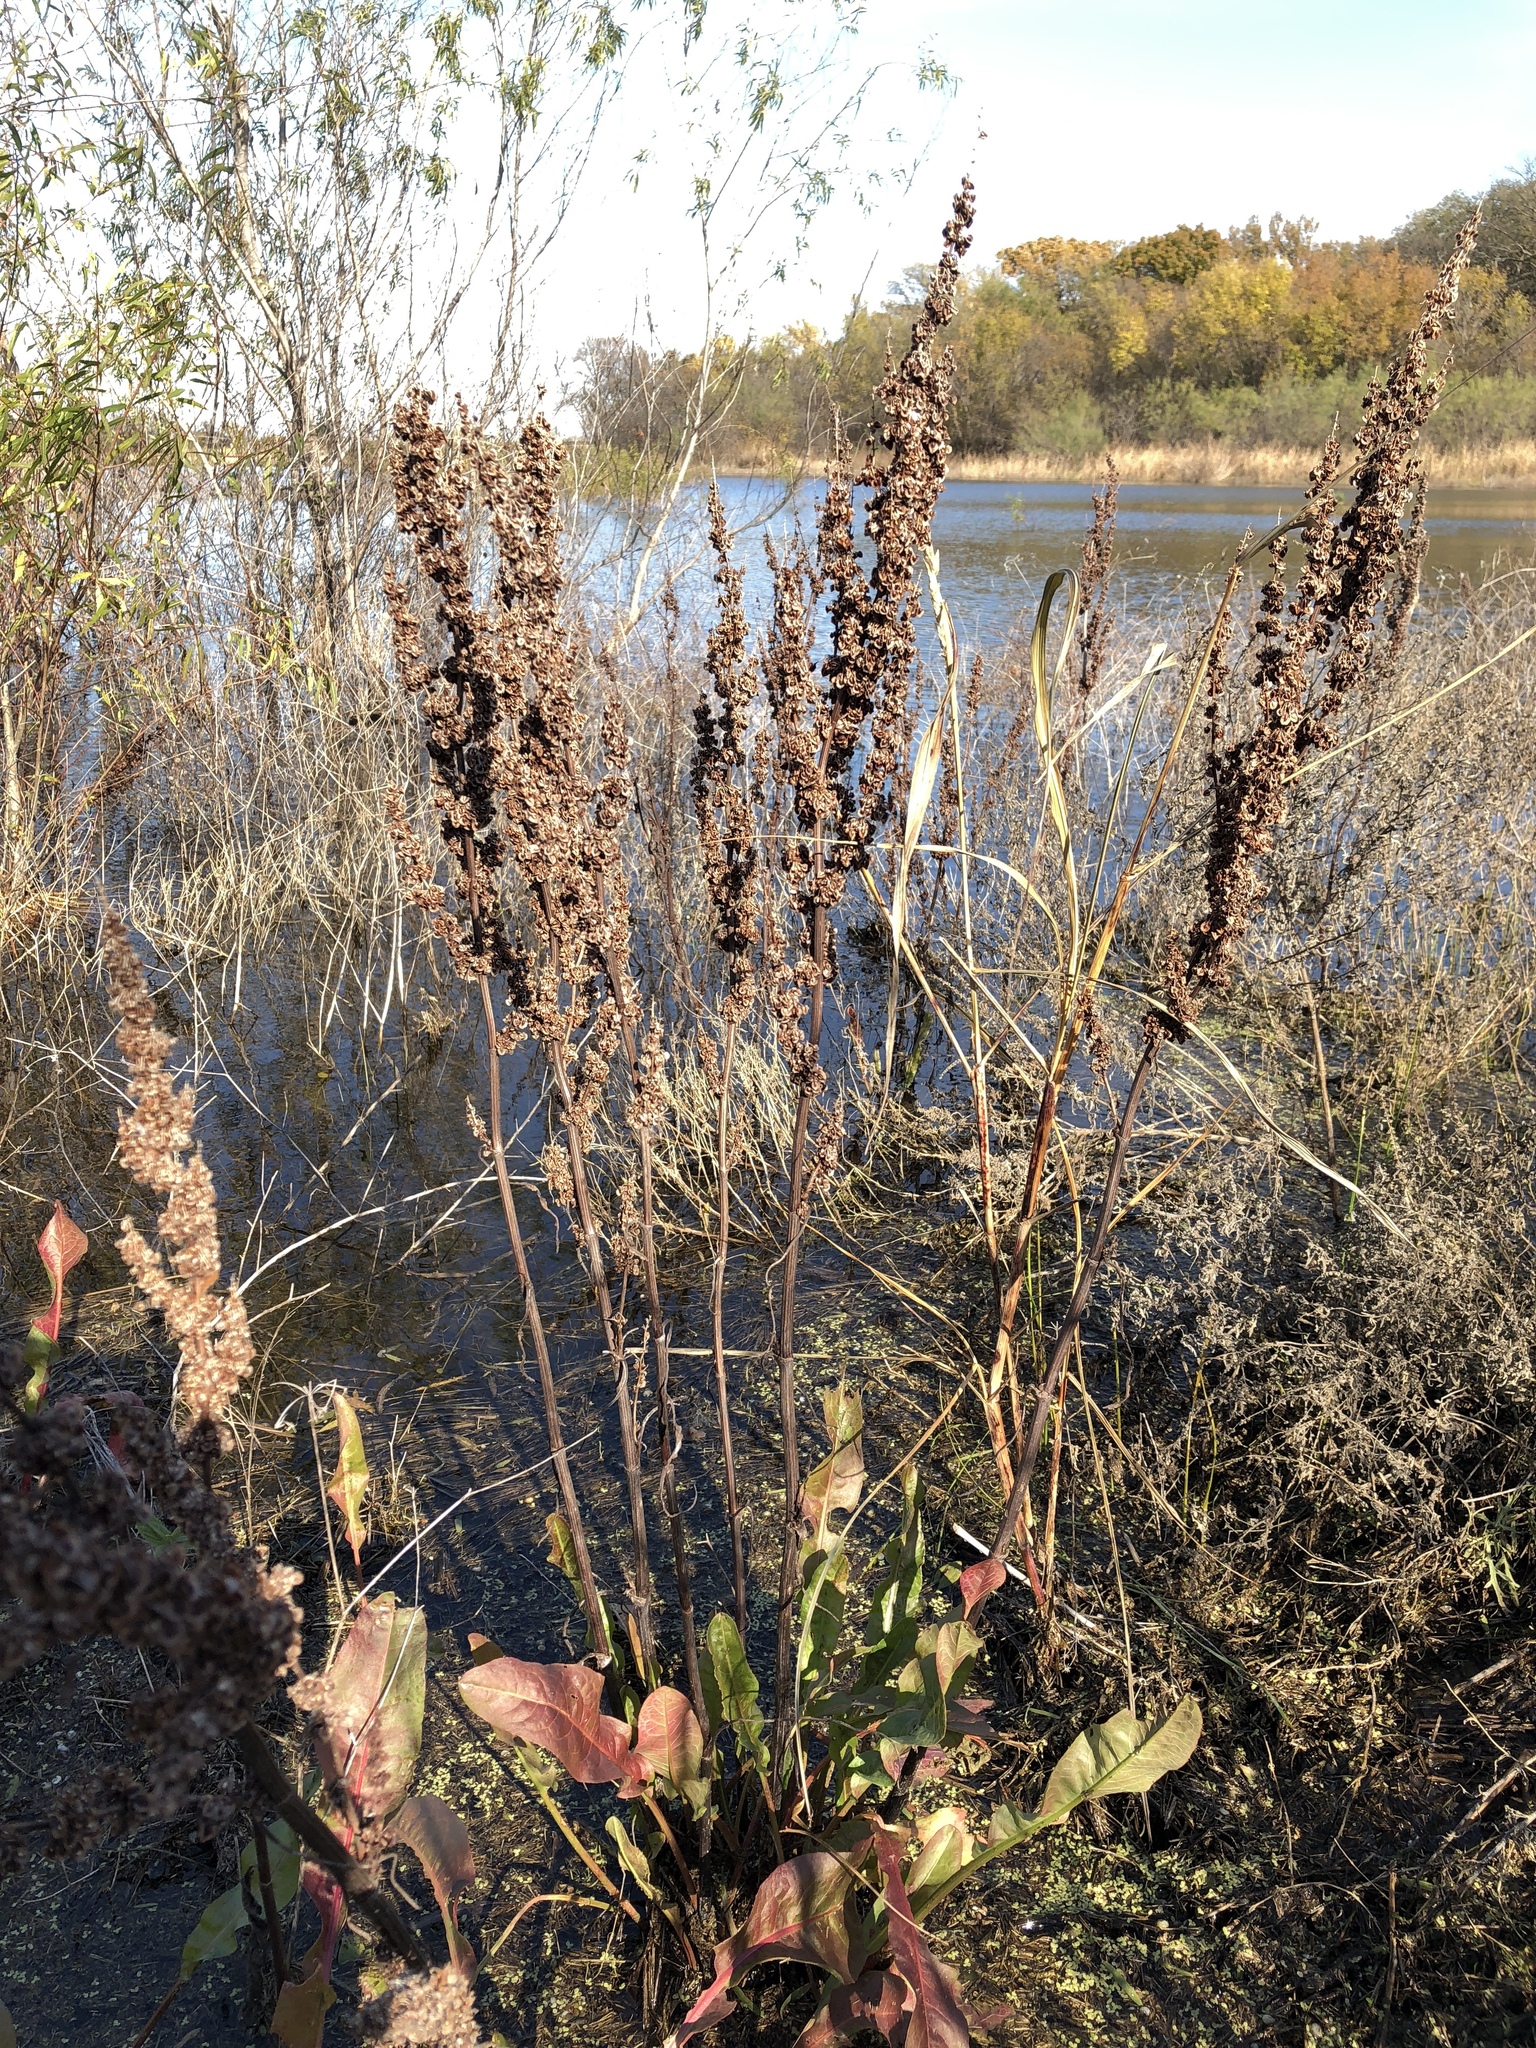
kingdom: Plantae
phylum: Tracheophyta
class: Magnoliopsida
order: Caryophyllales
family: Polygonaceae
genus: Rumex
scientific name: Rumex crispus
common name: Curled dock
